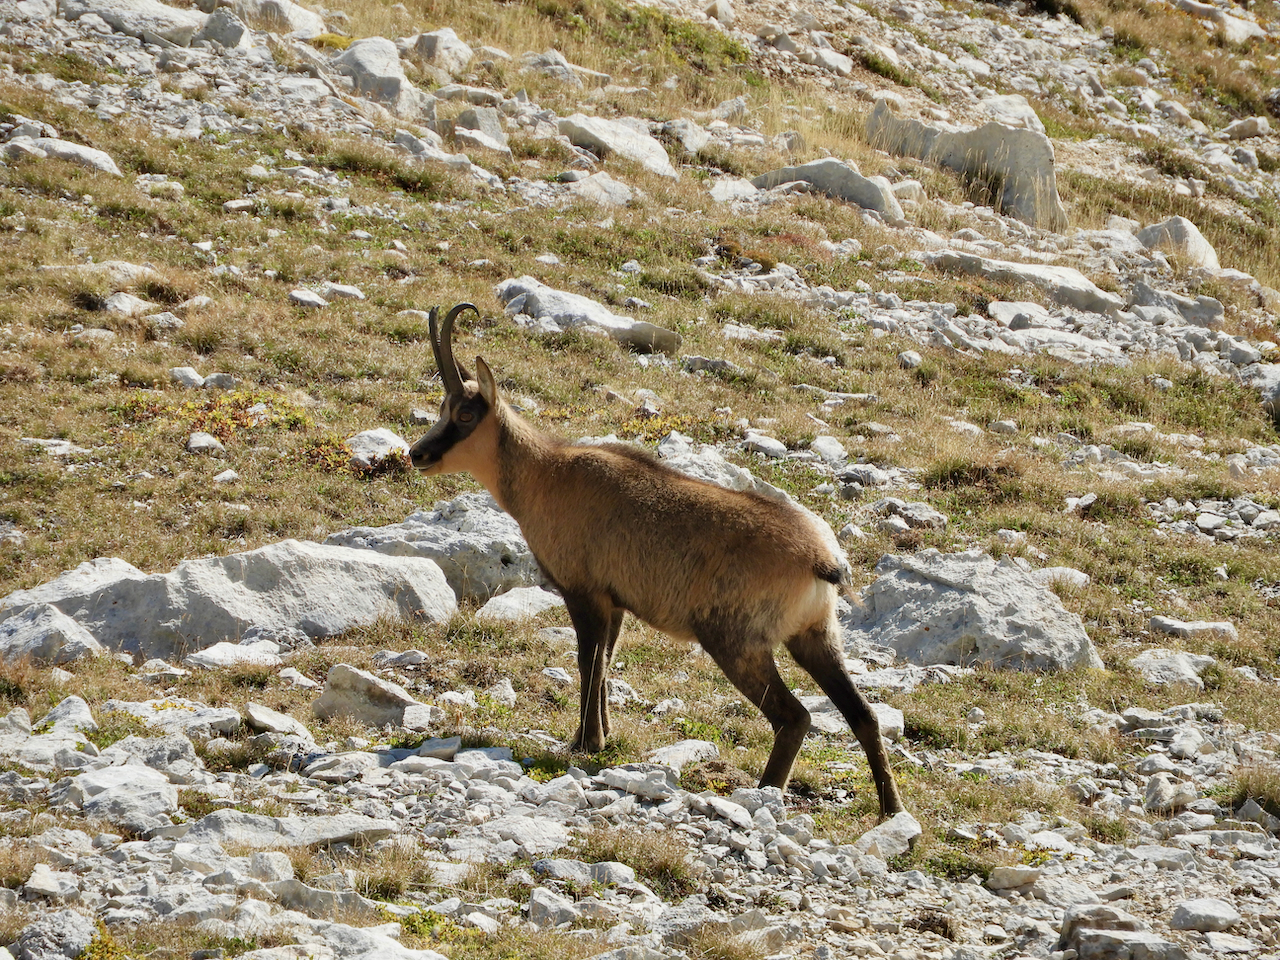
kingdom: Animalia
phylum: Chordata
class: Mammalia
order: Artiodactyla
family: Bovidae
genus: Rupicapra
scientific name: Rupicapra pyrenaica
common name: Pyrenean chamois
